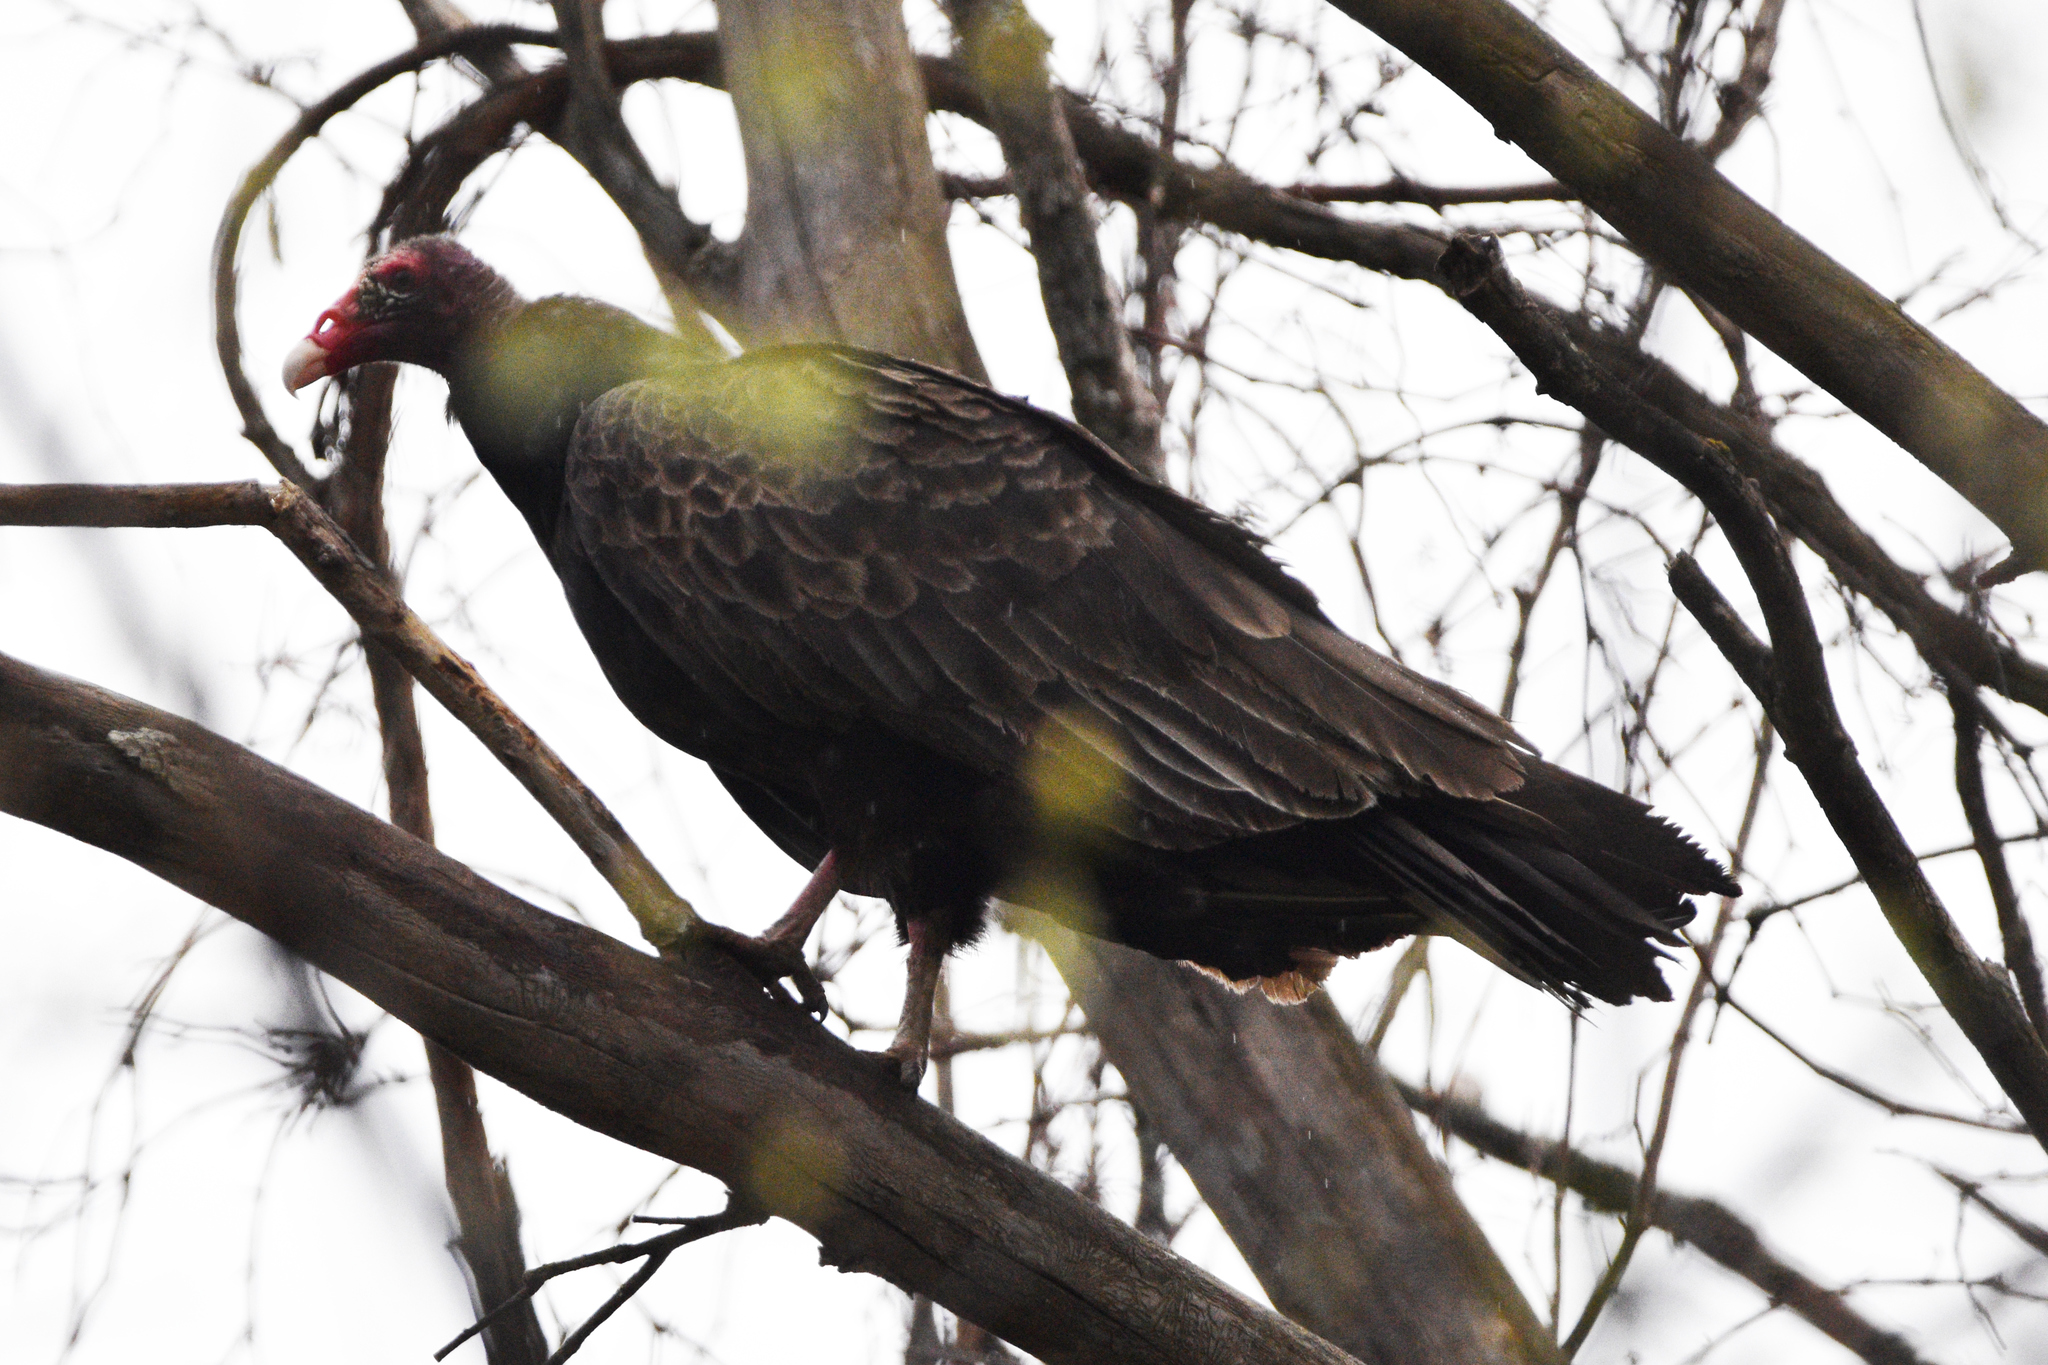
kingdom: Animalia
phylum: Chordata
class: Aves
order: Accipitriformes
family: Cathartidae
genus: Cathartes
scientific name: Cathartes aura
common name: Turkey vulture
